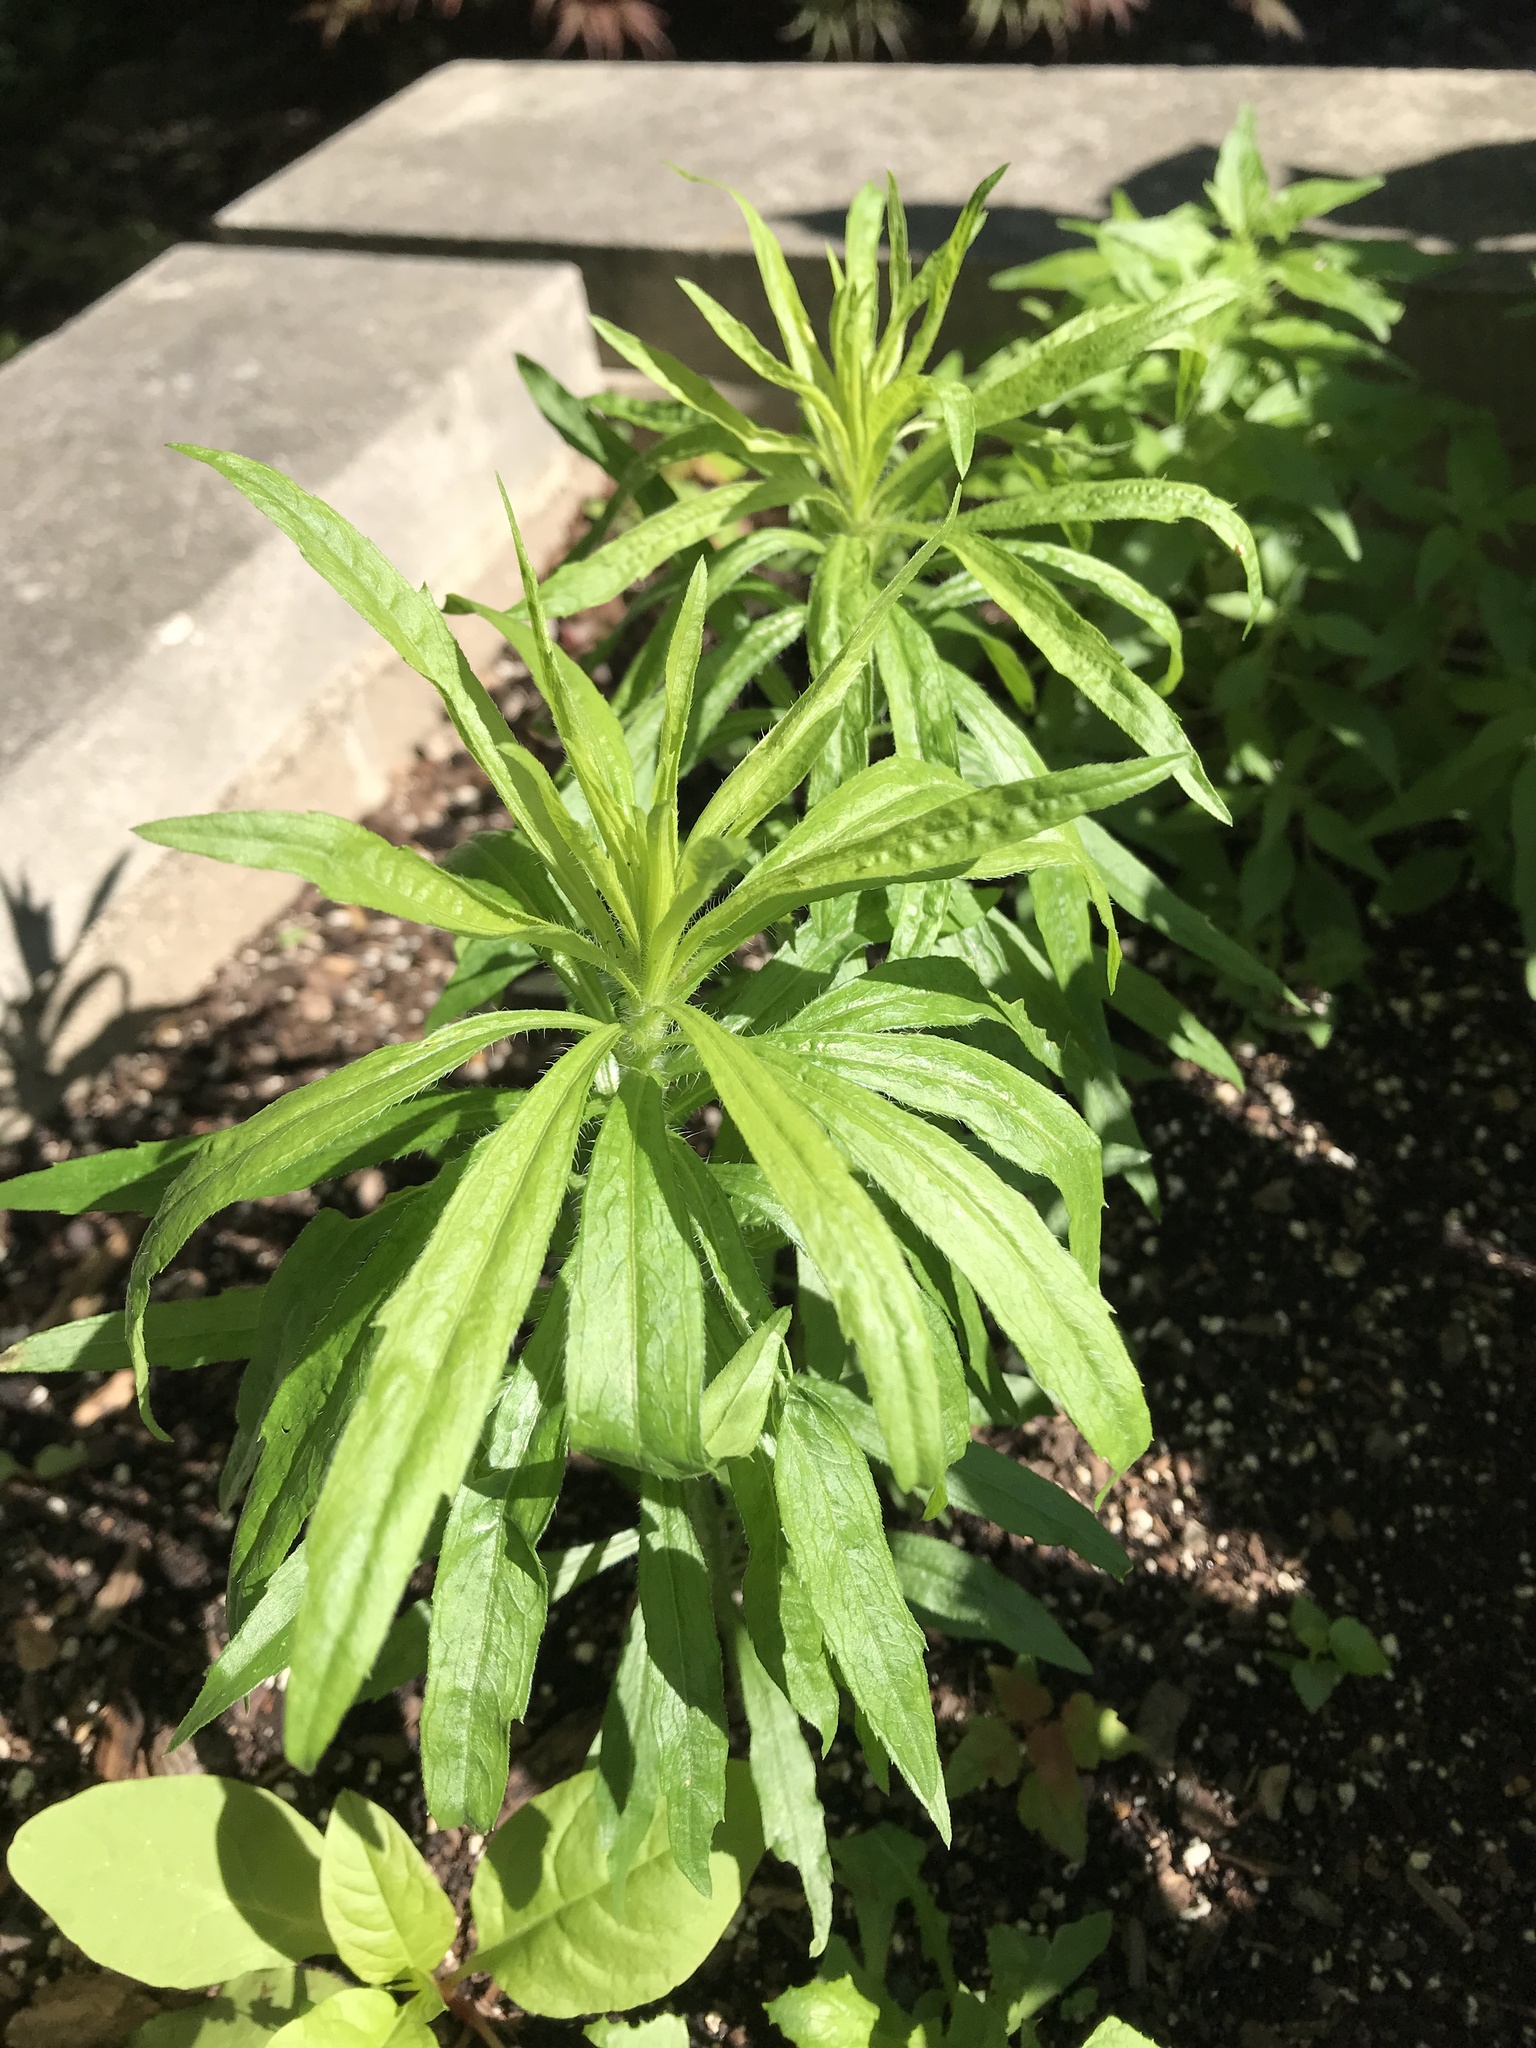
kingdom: Plantae
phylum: Tracheophyta
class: Magnoliopsida
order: Asterales
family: Asteraceae
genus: Erigeron
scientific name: Erigeron canadensis
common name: Canadian fleabane
